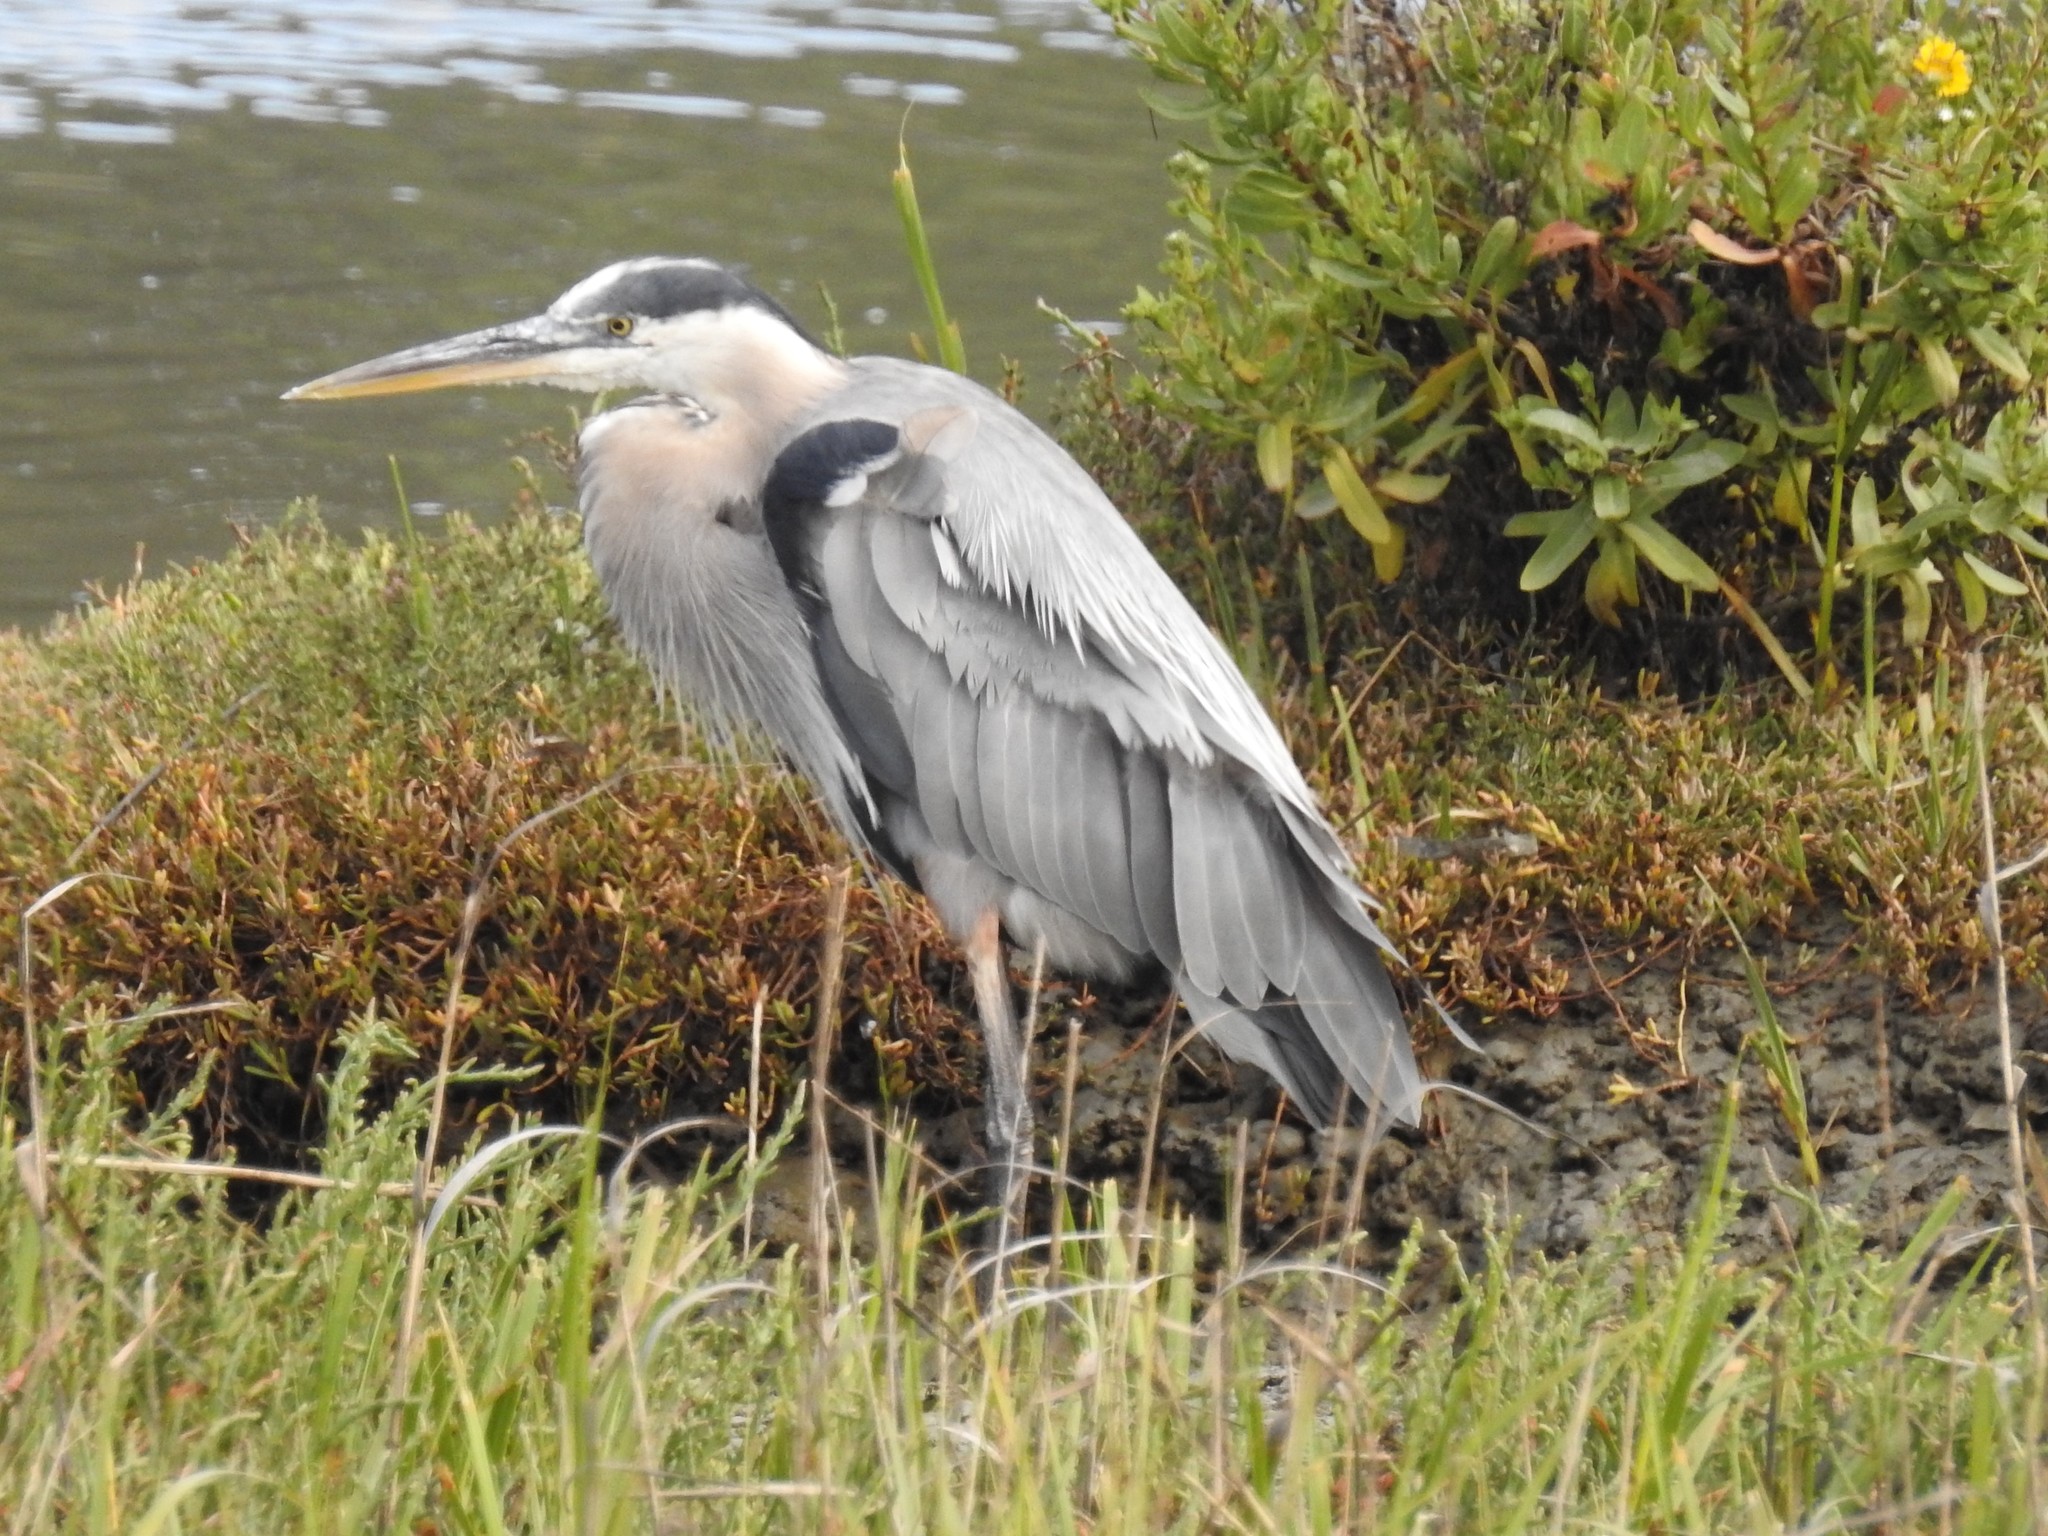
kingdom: Animalia
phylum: Chordata
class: Aves
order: Pelecaniformes
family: Ardeidae
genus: Ardea
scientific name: Ardea herodias
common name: Great blue heron
